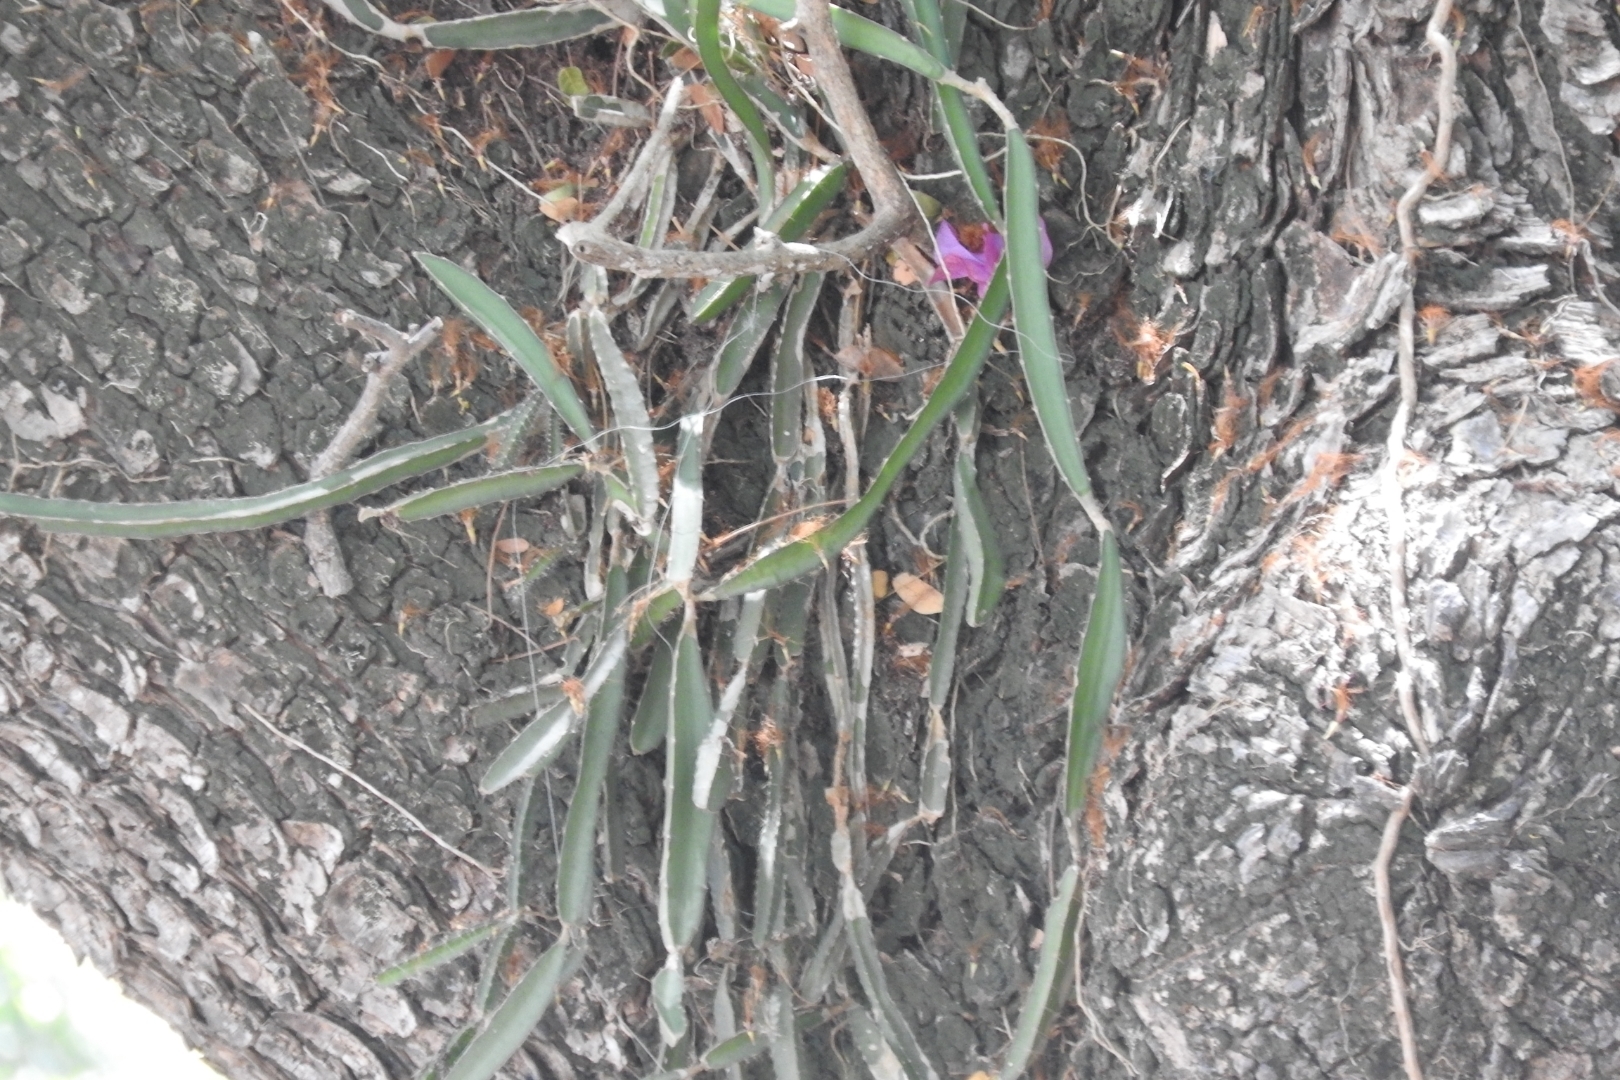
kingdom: Plantae
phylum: Tracheophyta
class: Magnoliopsida
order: Caryophyllales
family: Cactaceae
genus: Selenicereus
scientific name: Selenicereus undatus
